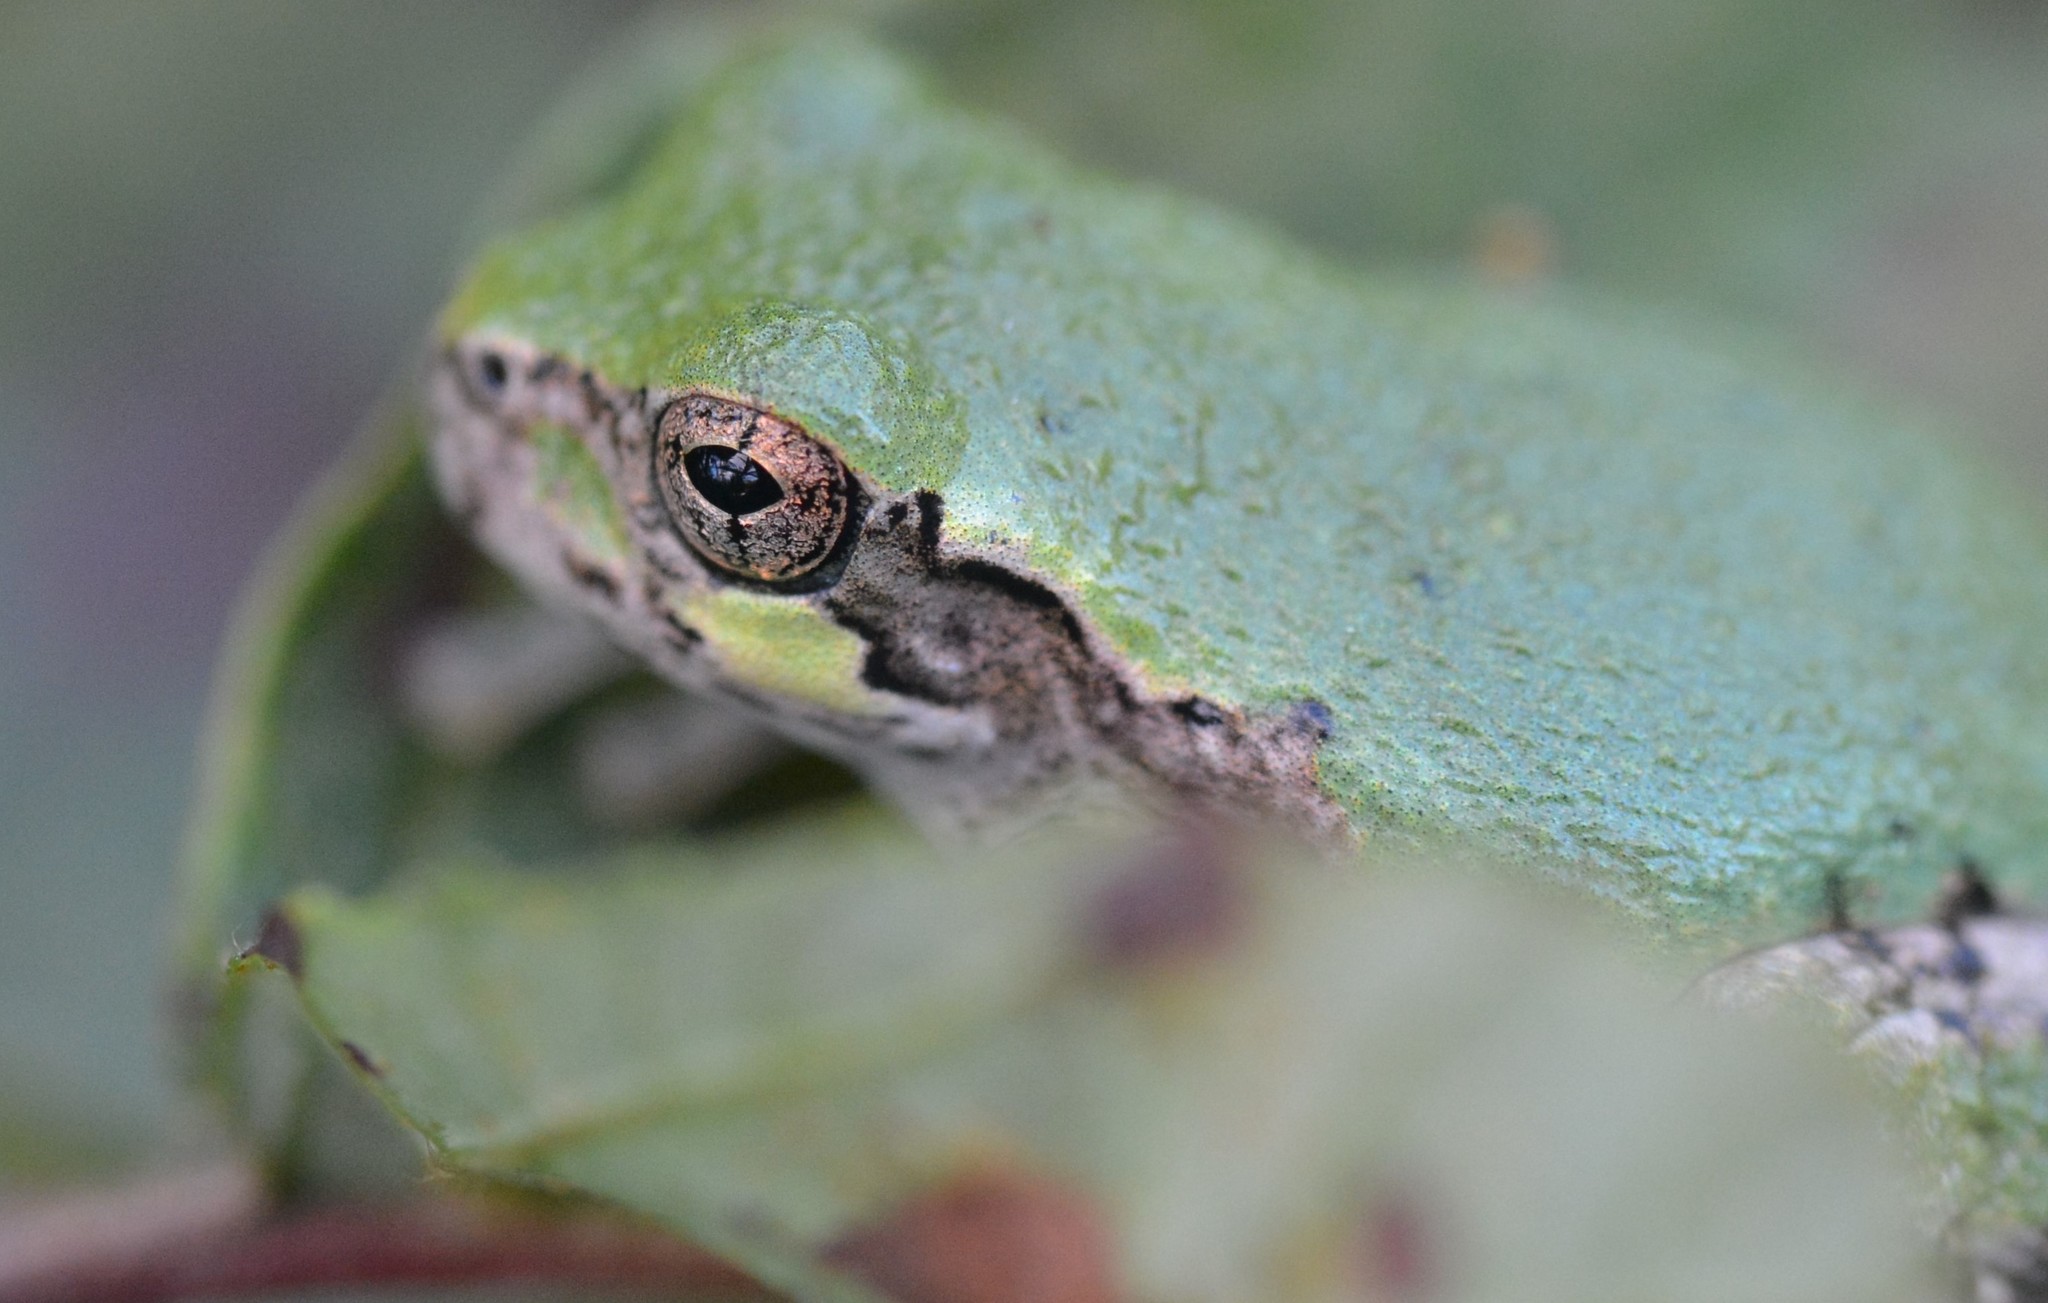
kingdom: Animalia
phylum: Chordata
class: Amphibia
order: Anura
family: Hylidae
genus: Dryophytes
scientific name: Dryophytes versicolor
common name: Gray treefrog
